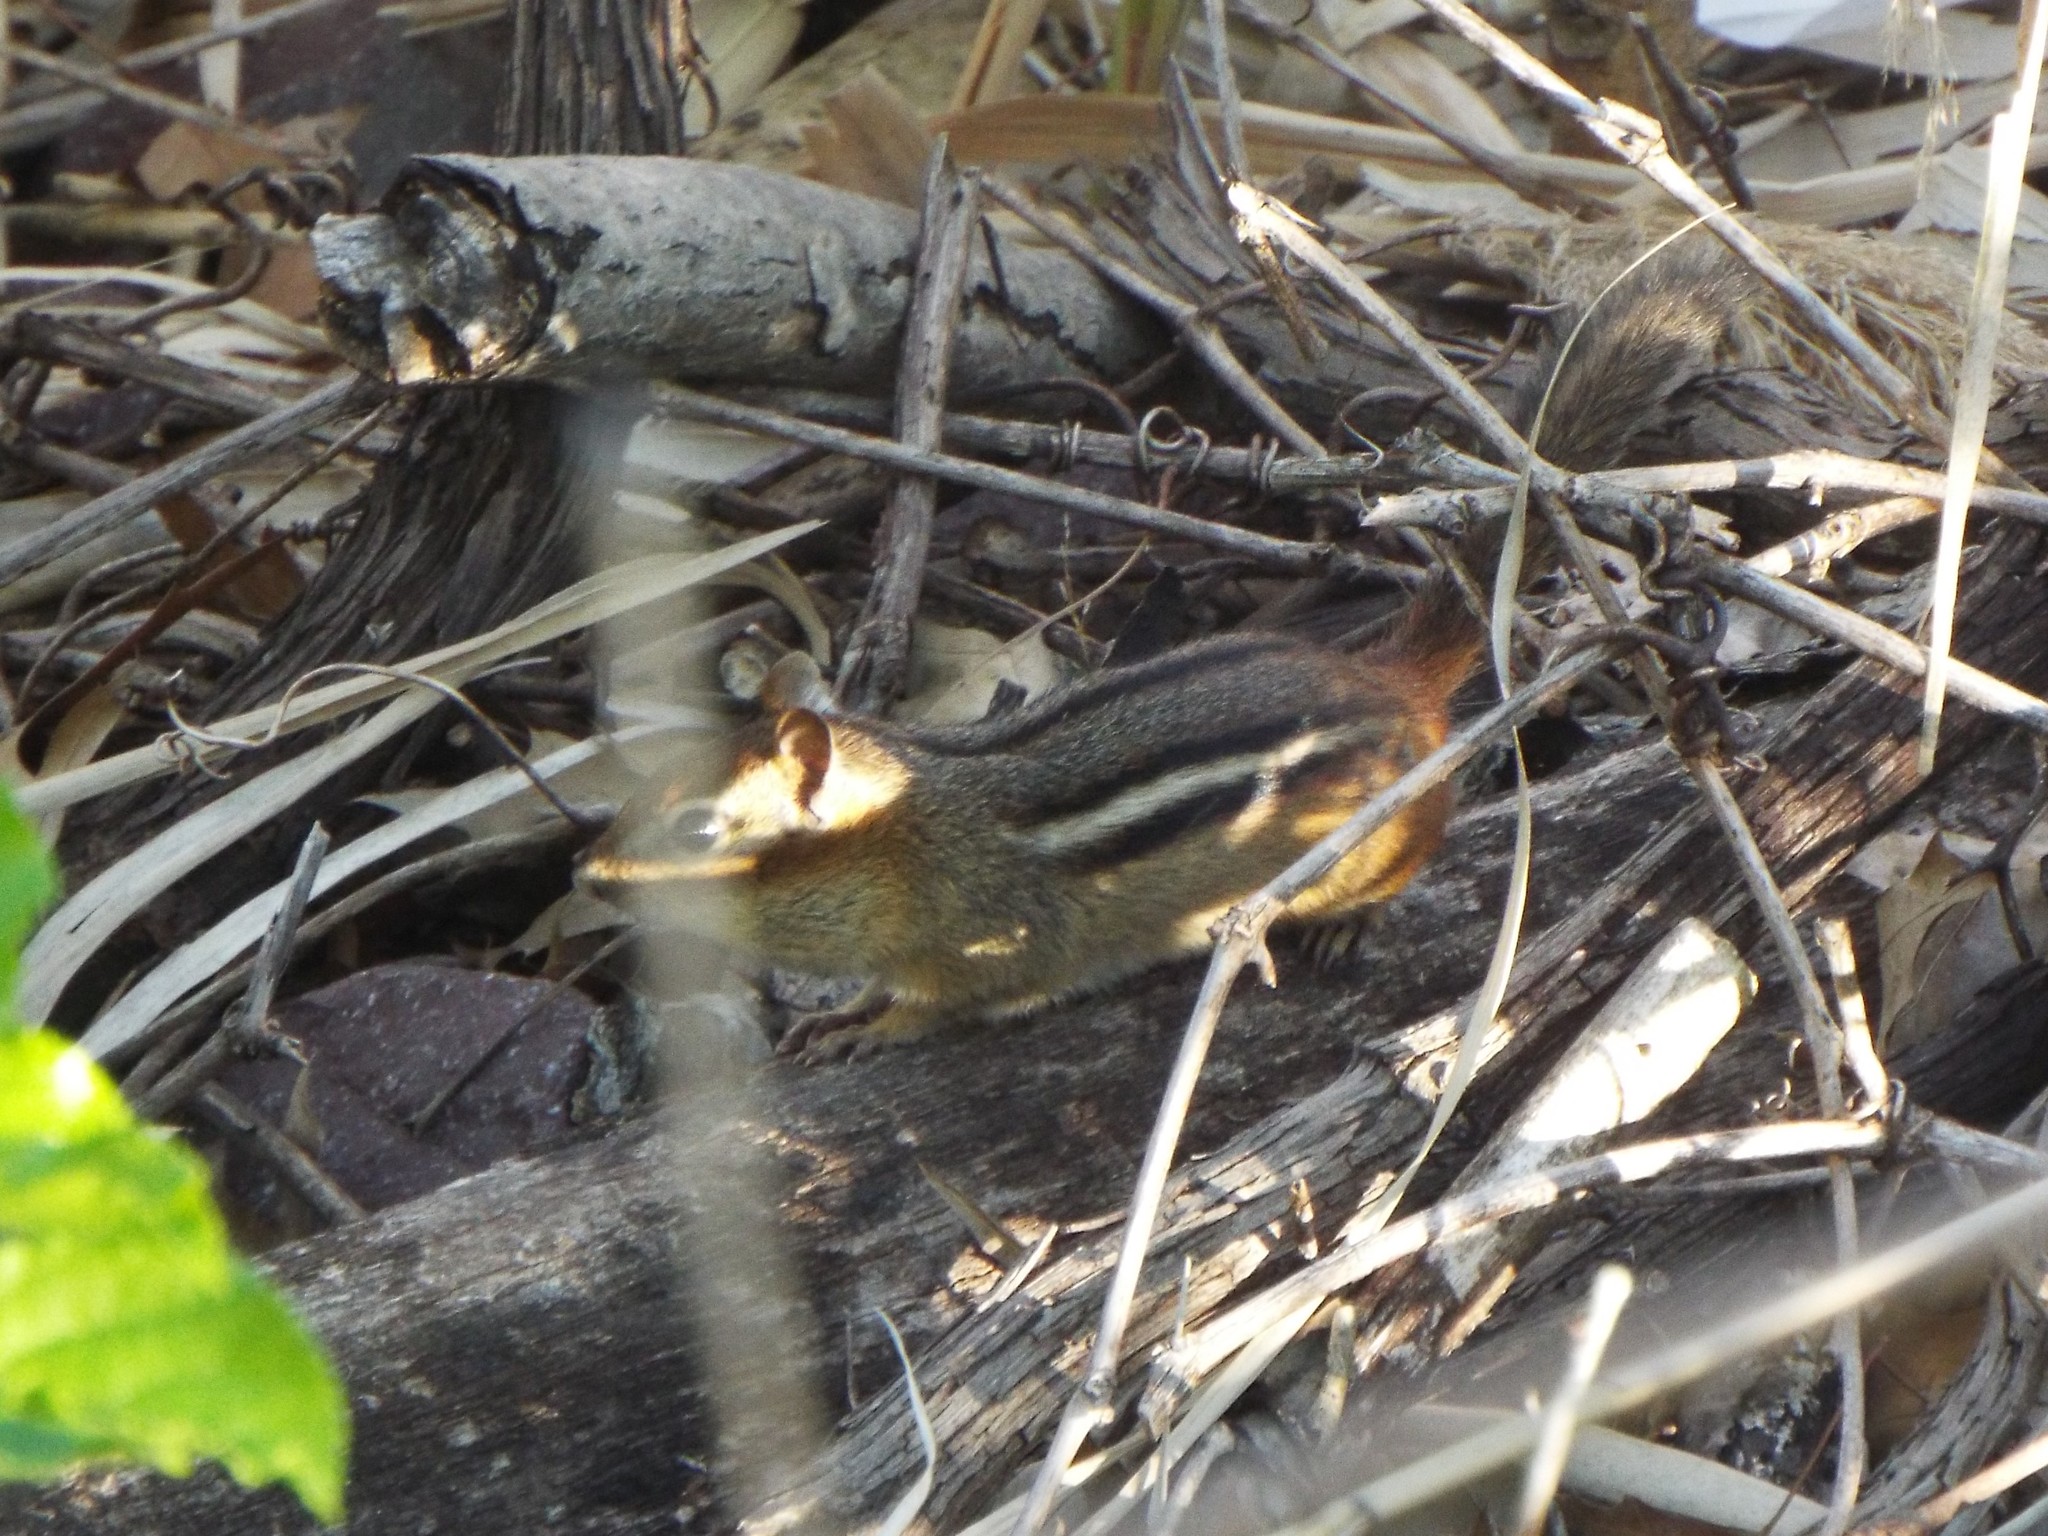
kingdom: Animalia
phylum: Chordata
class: Mammalia
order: Rodentia
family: Sciuridae
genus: Tamias
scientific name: Tamias striatus
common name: Eastern chipmunk
